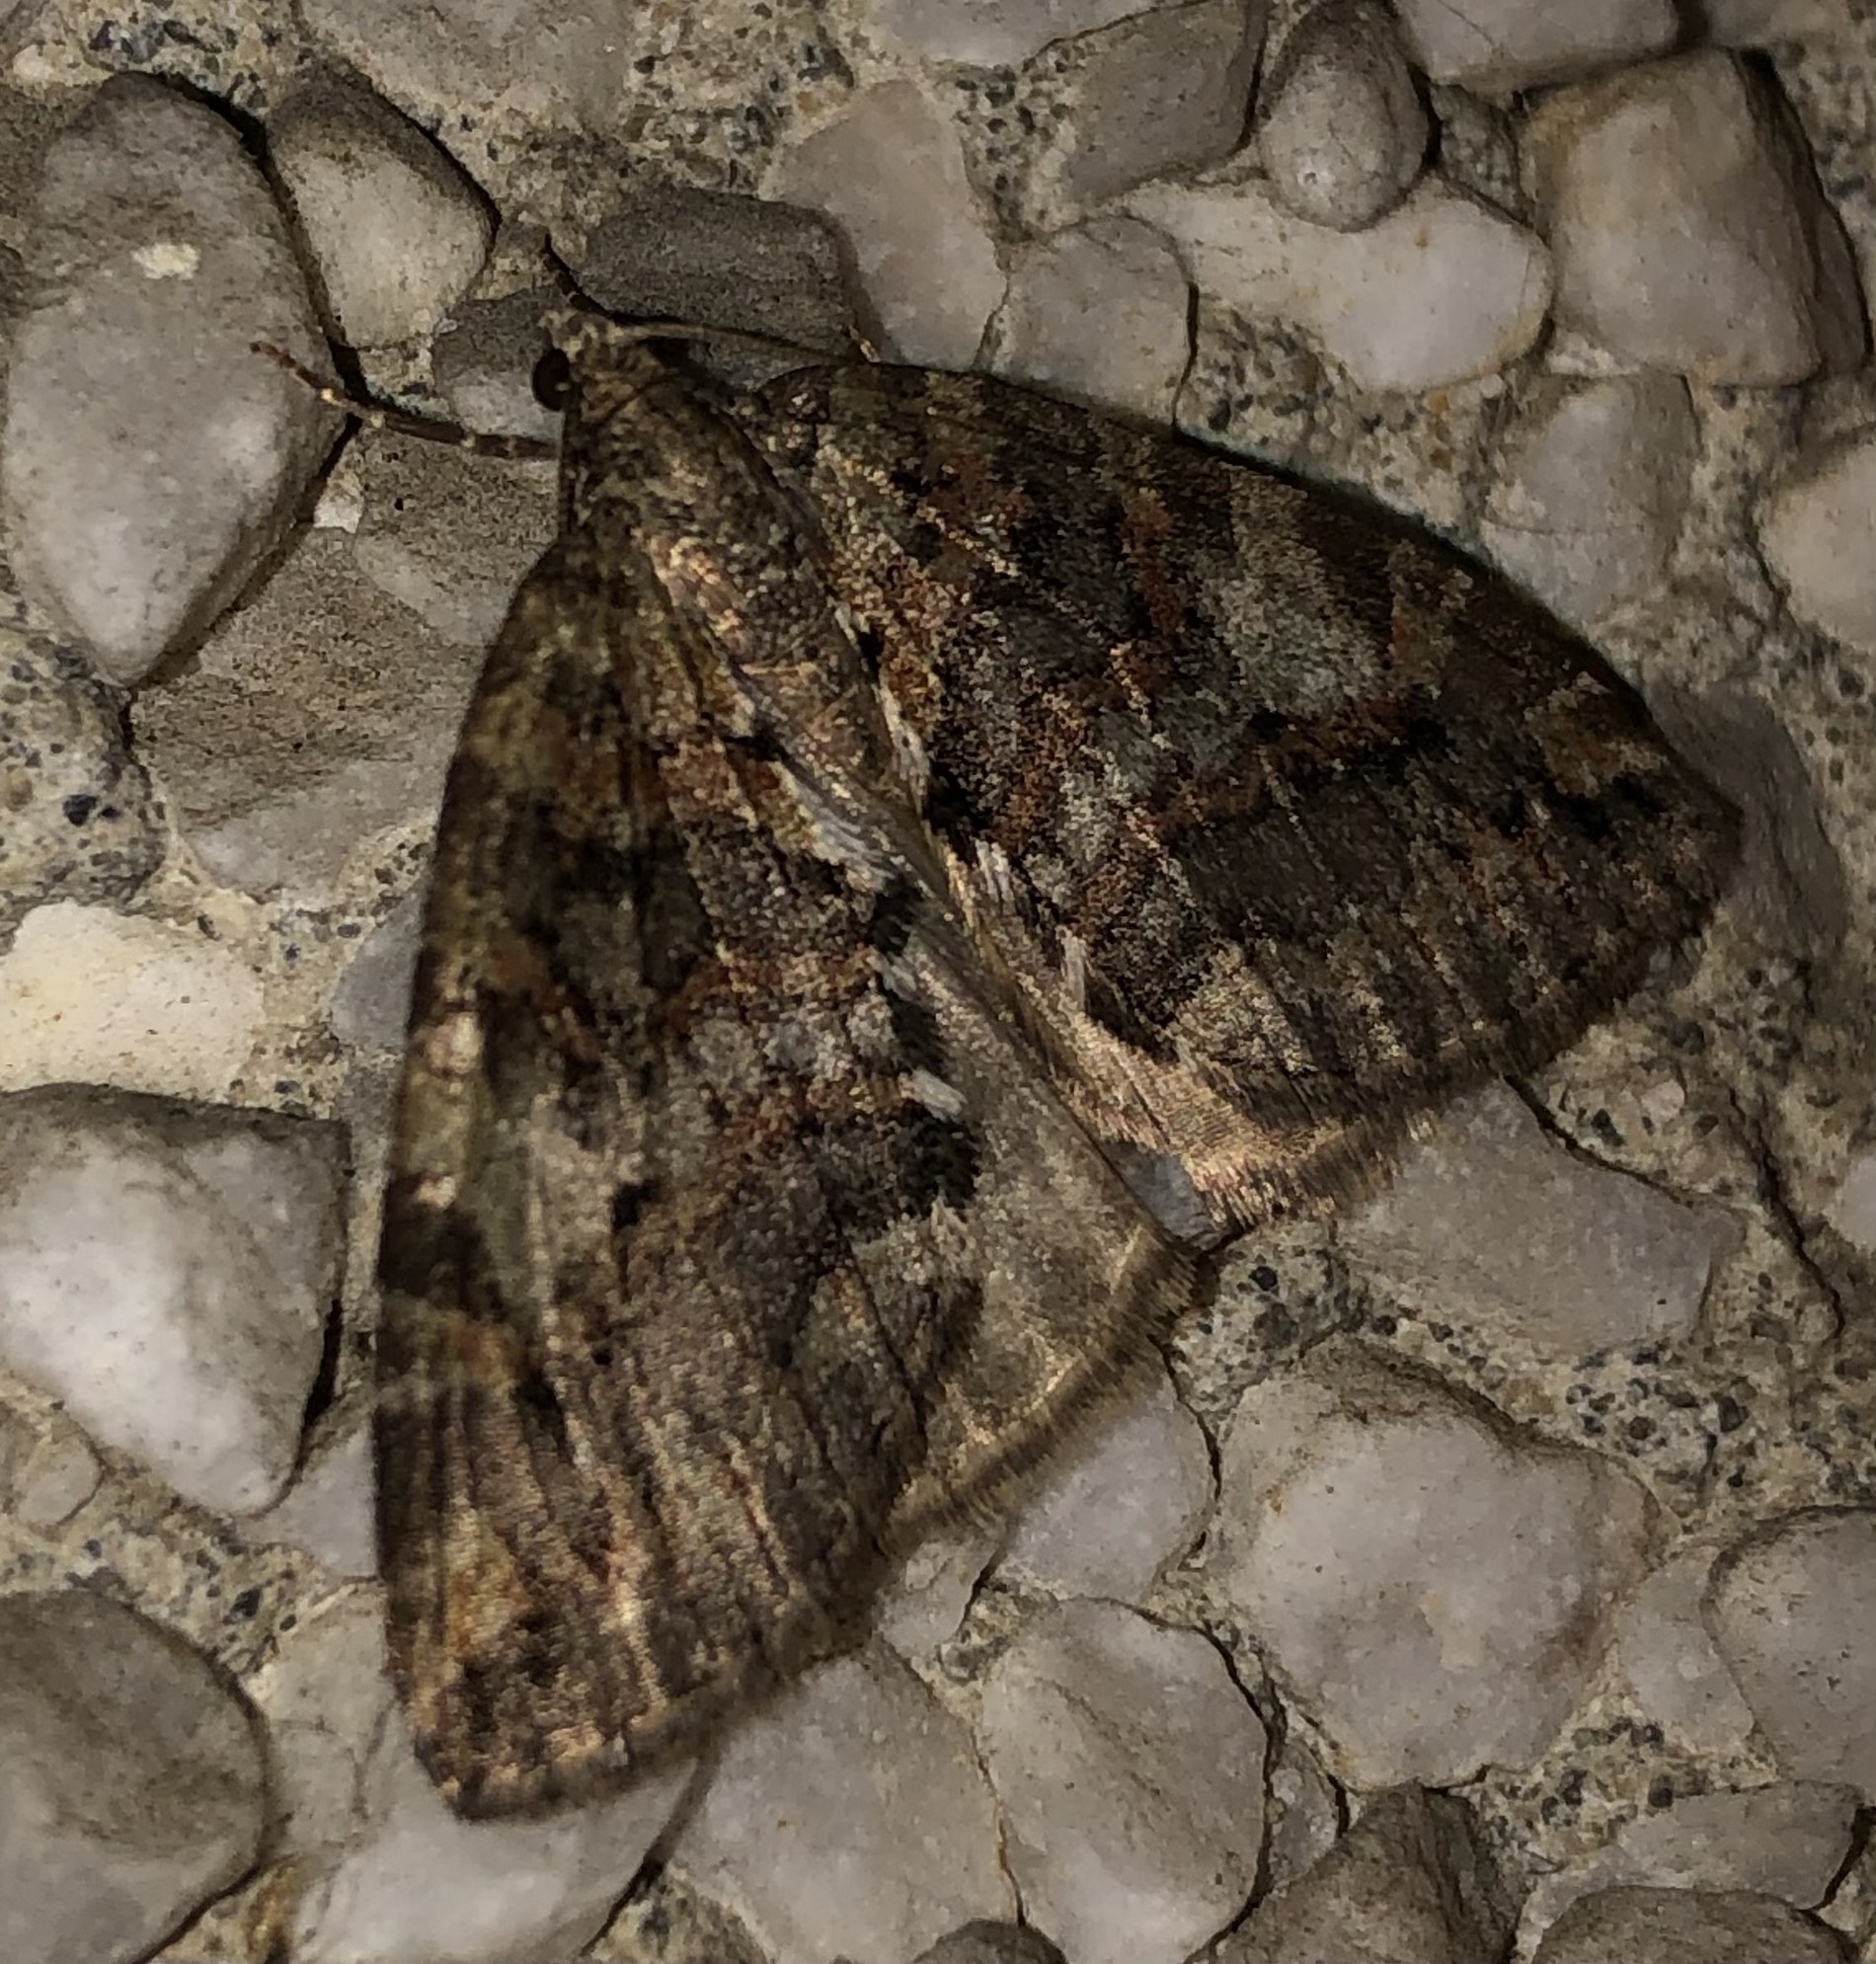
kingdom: Animalia
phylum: Arthropoda
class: Insecta
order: Lepidoptera
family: Geometridae
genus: Hydriomena
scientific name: Hydriomena nubilofasciata
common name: Oak winter highflier moth
